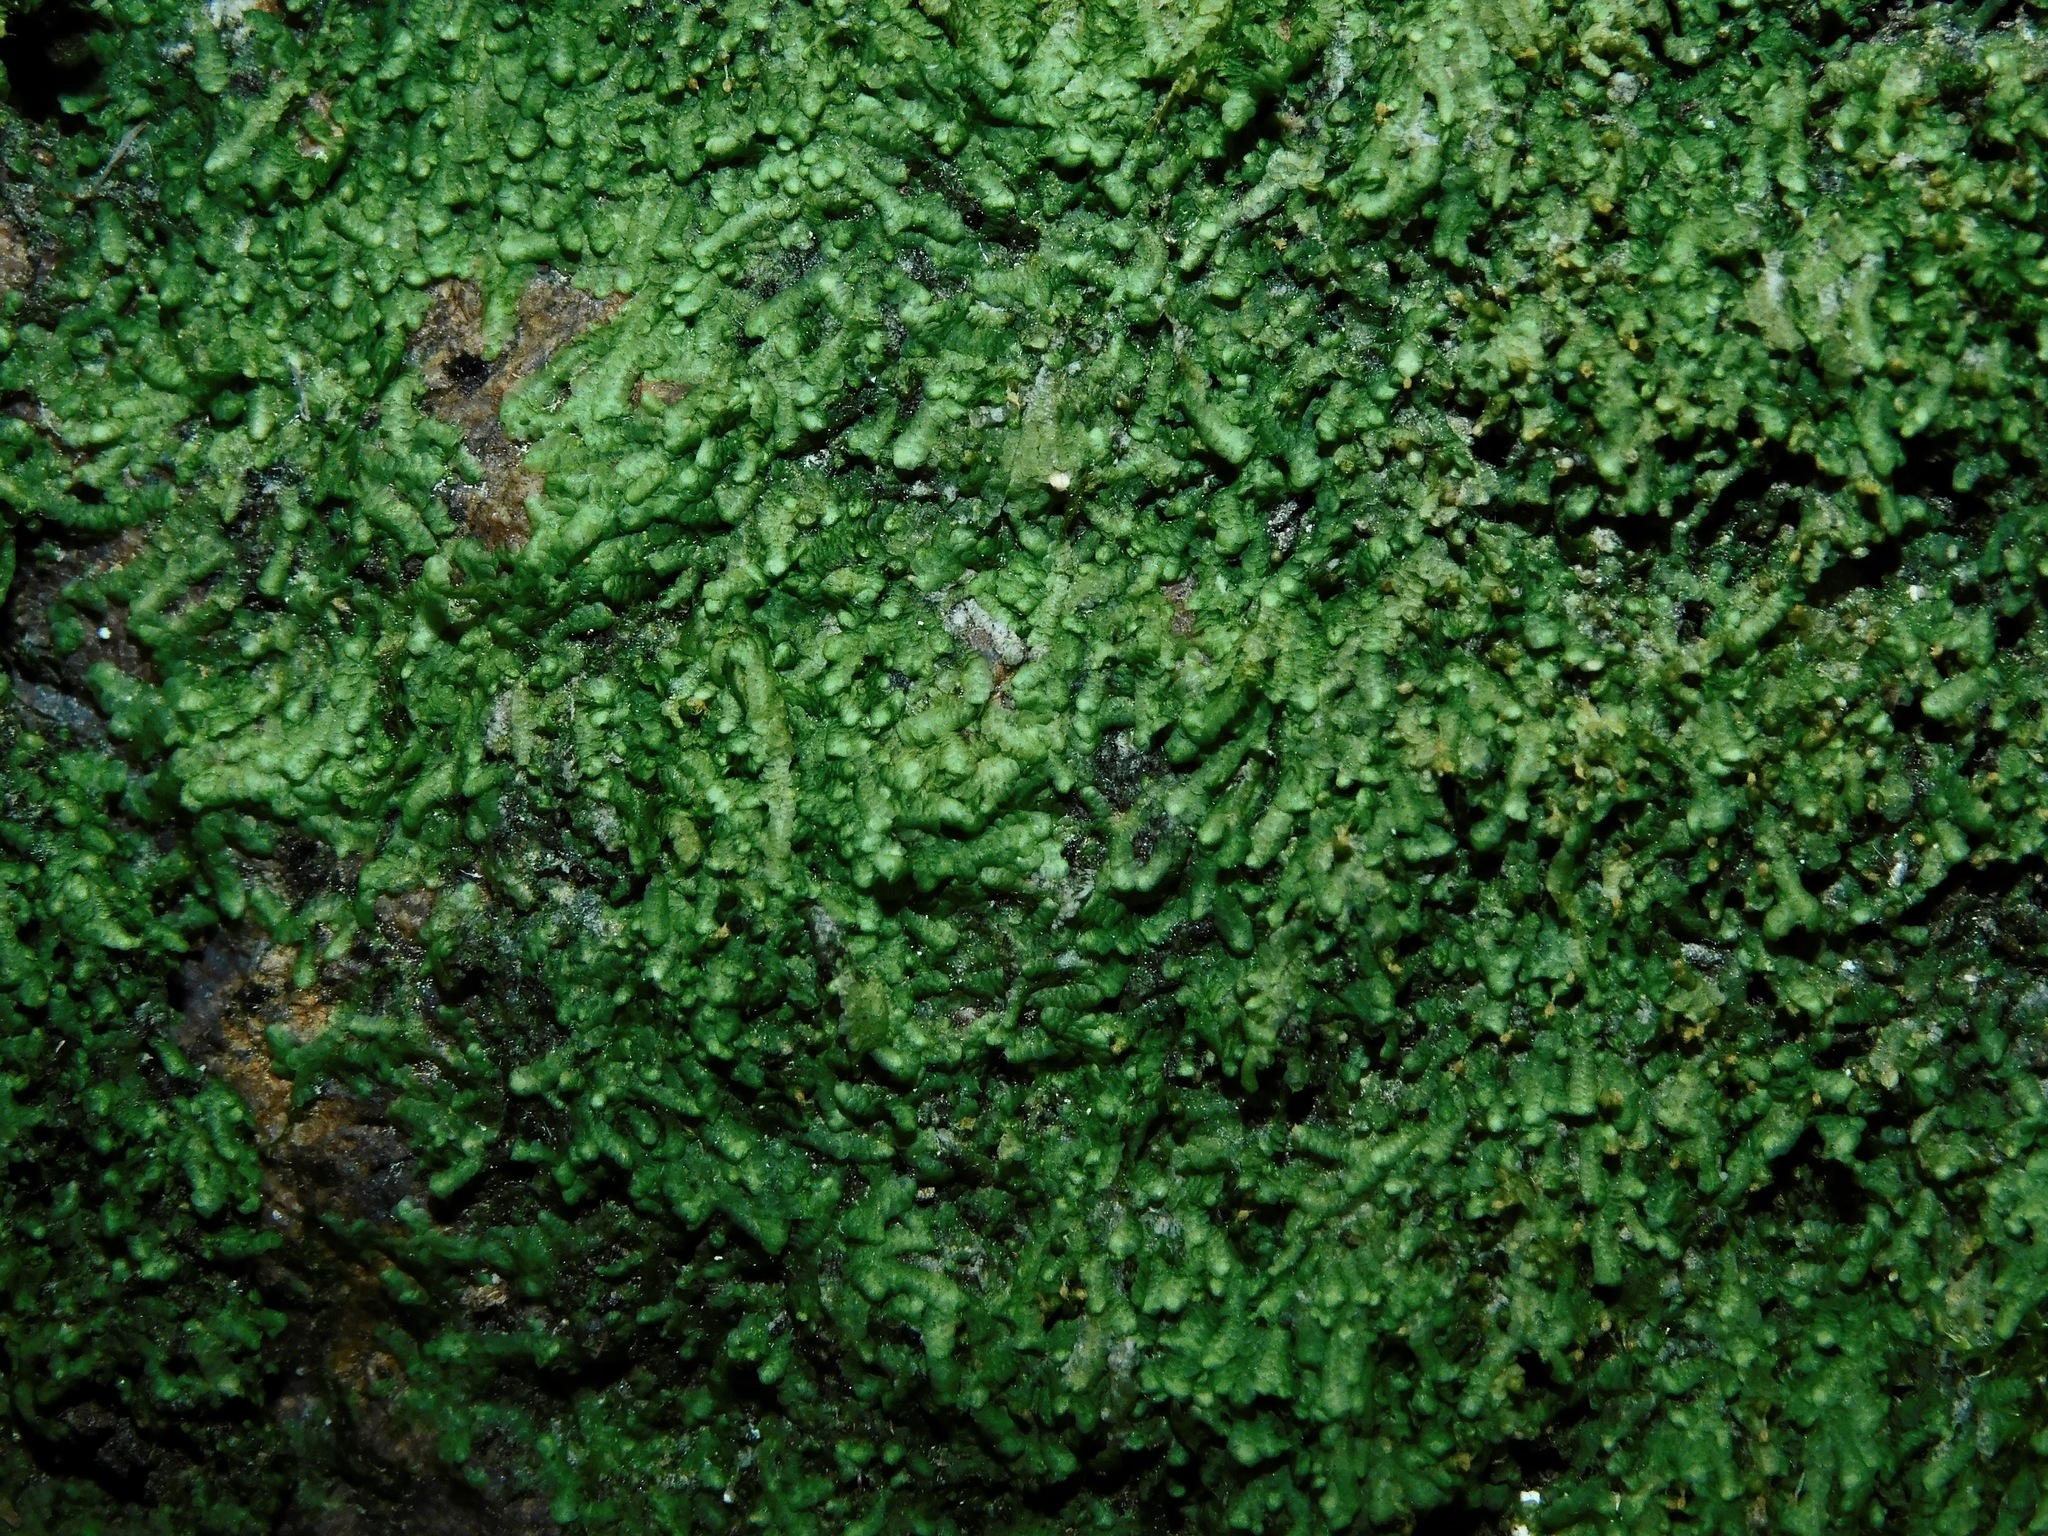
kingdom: Plantae
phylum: Marchantiophyta
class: Jungermanniopsida
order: Porellales
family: Radulaceae
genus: Radula
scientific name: Radula complanata
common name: Flat-leaved scalewort
